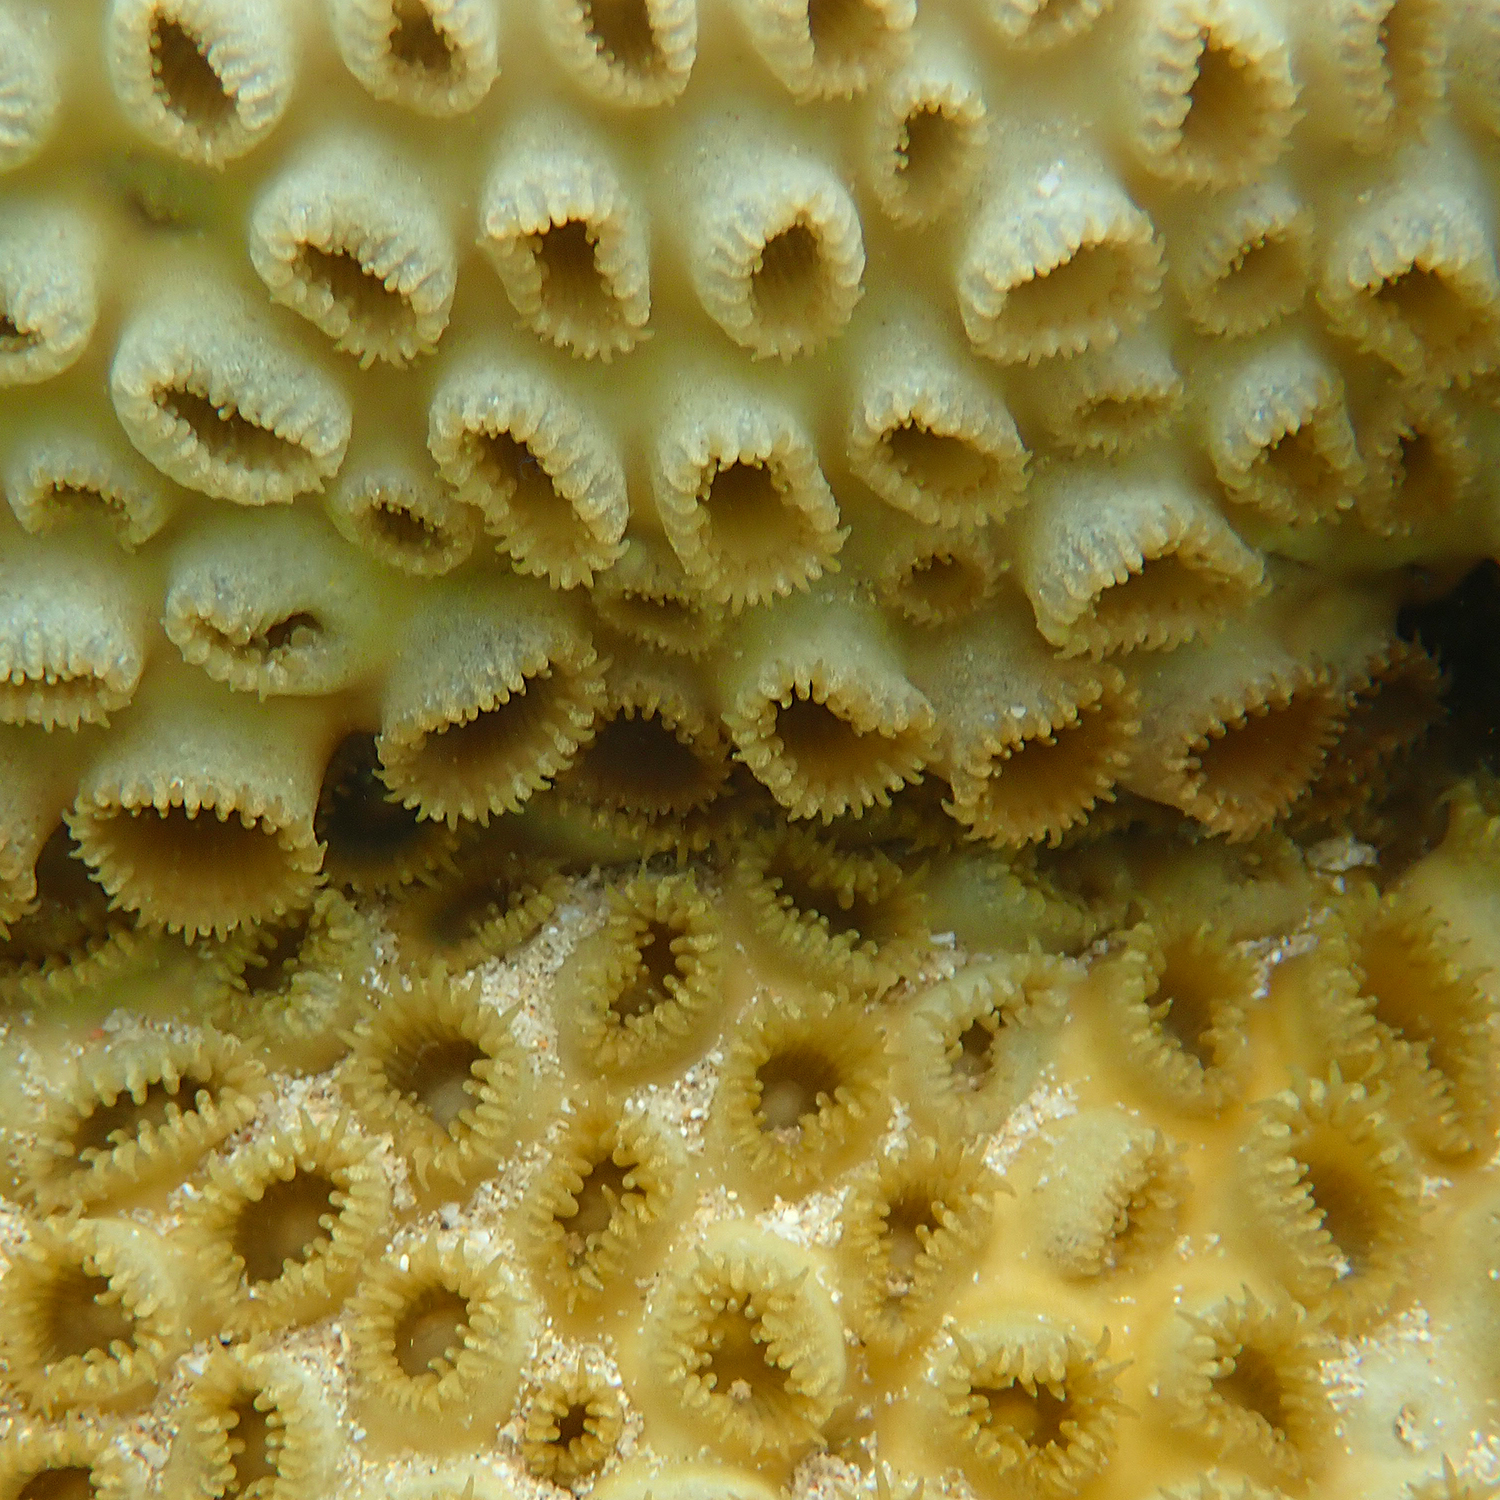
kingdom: Animalia
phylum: Cnidaria
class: Anthozoa
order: Zoantharia
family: Sphenopidae
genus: Palythoa
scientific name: Palythoa tuberculosa
